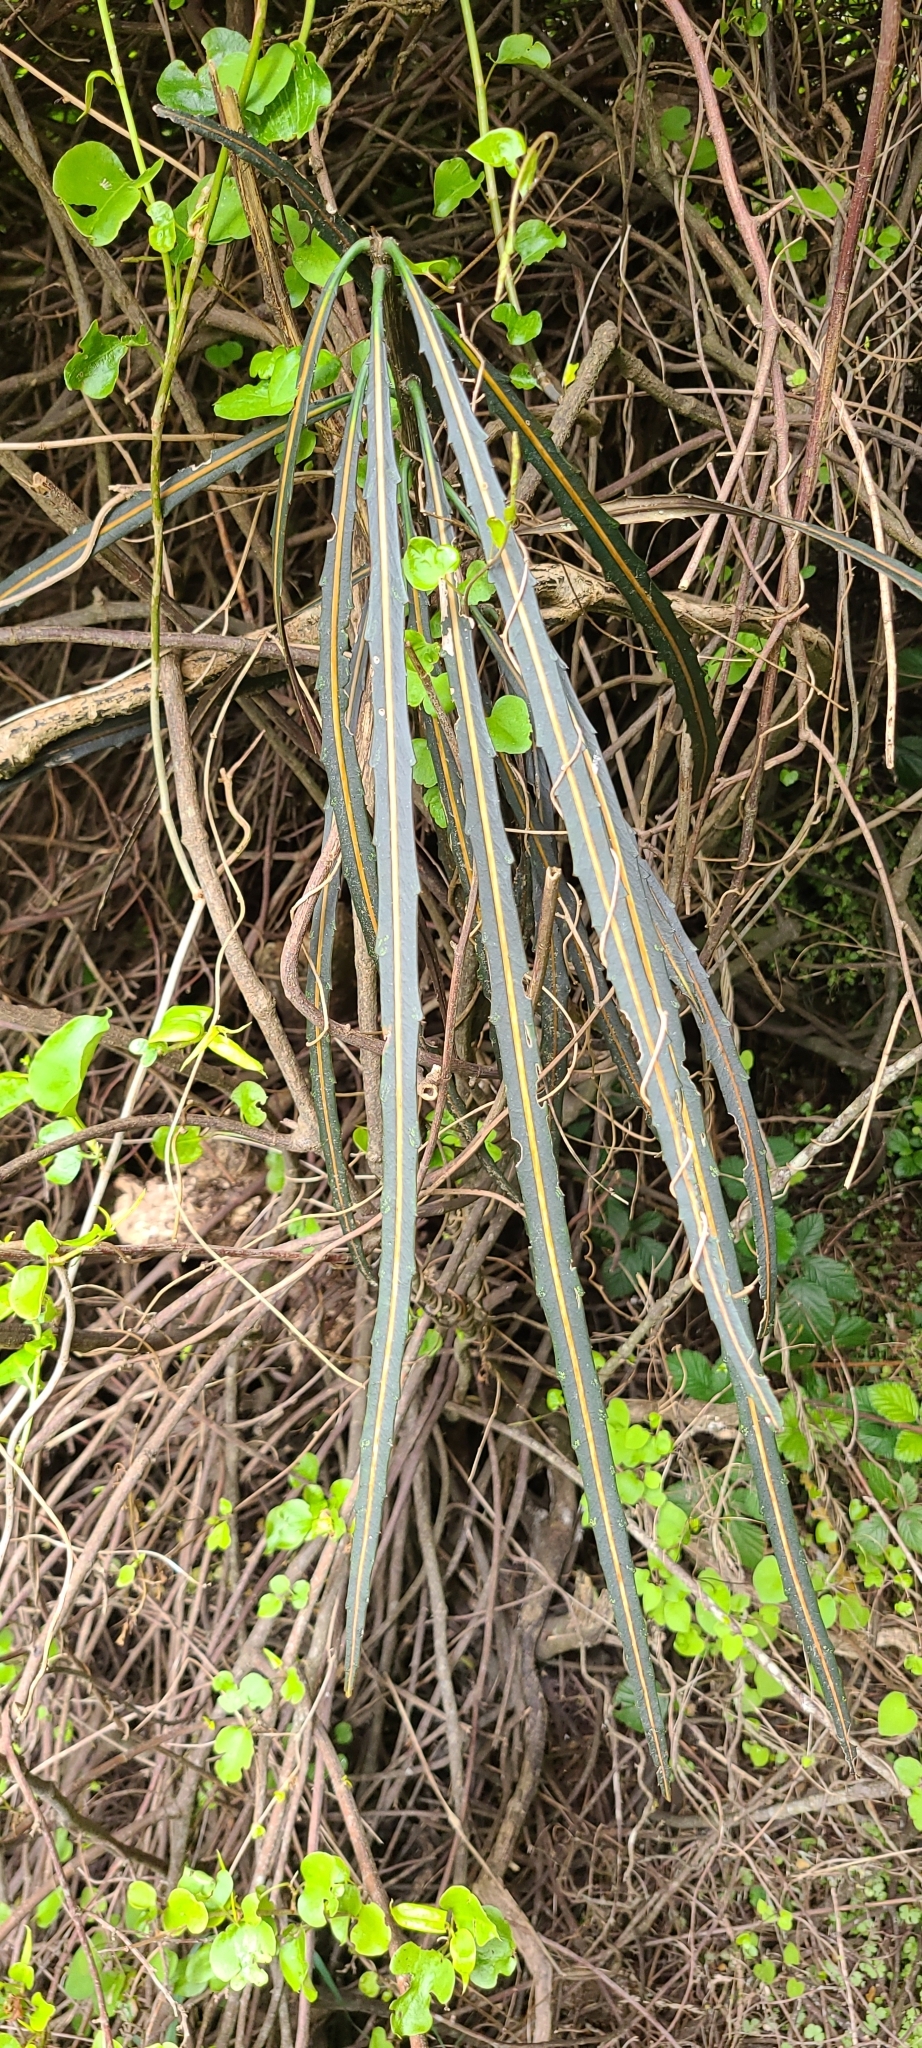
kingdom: Plantae
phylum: Tracheophyta
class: Magnoliopsida
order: Apiales
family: Araliaceae
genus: Pseudopanax
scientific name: Pseudopanax crassifolius
